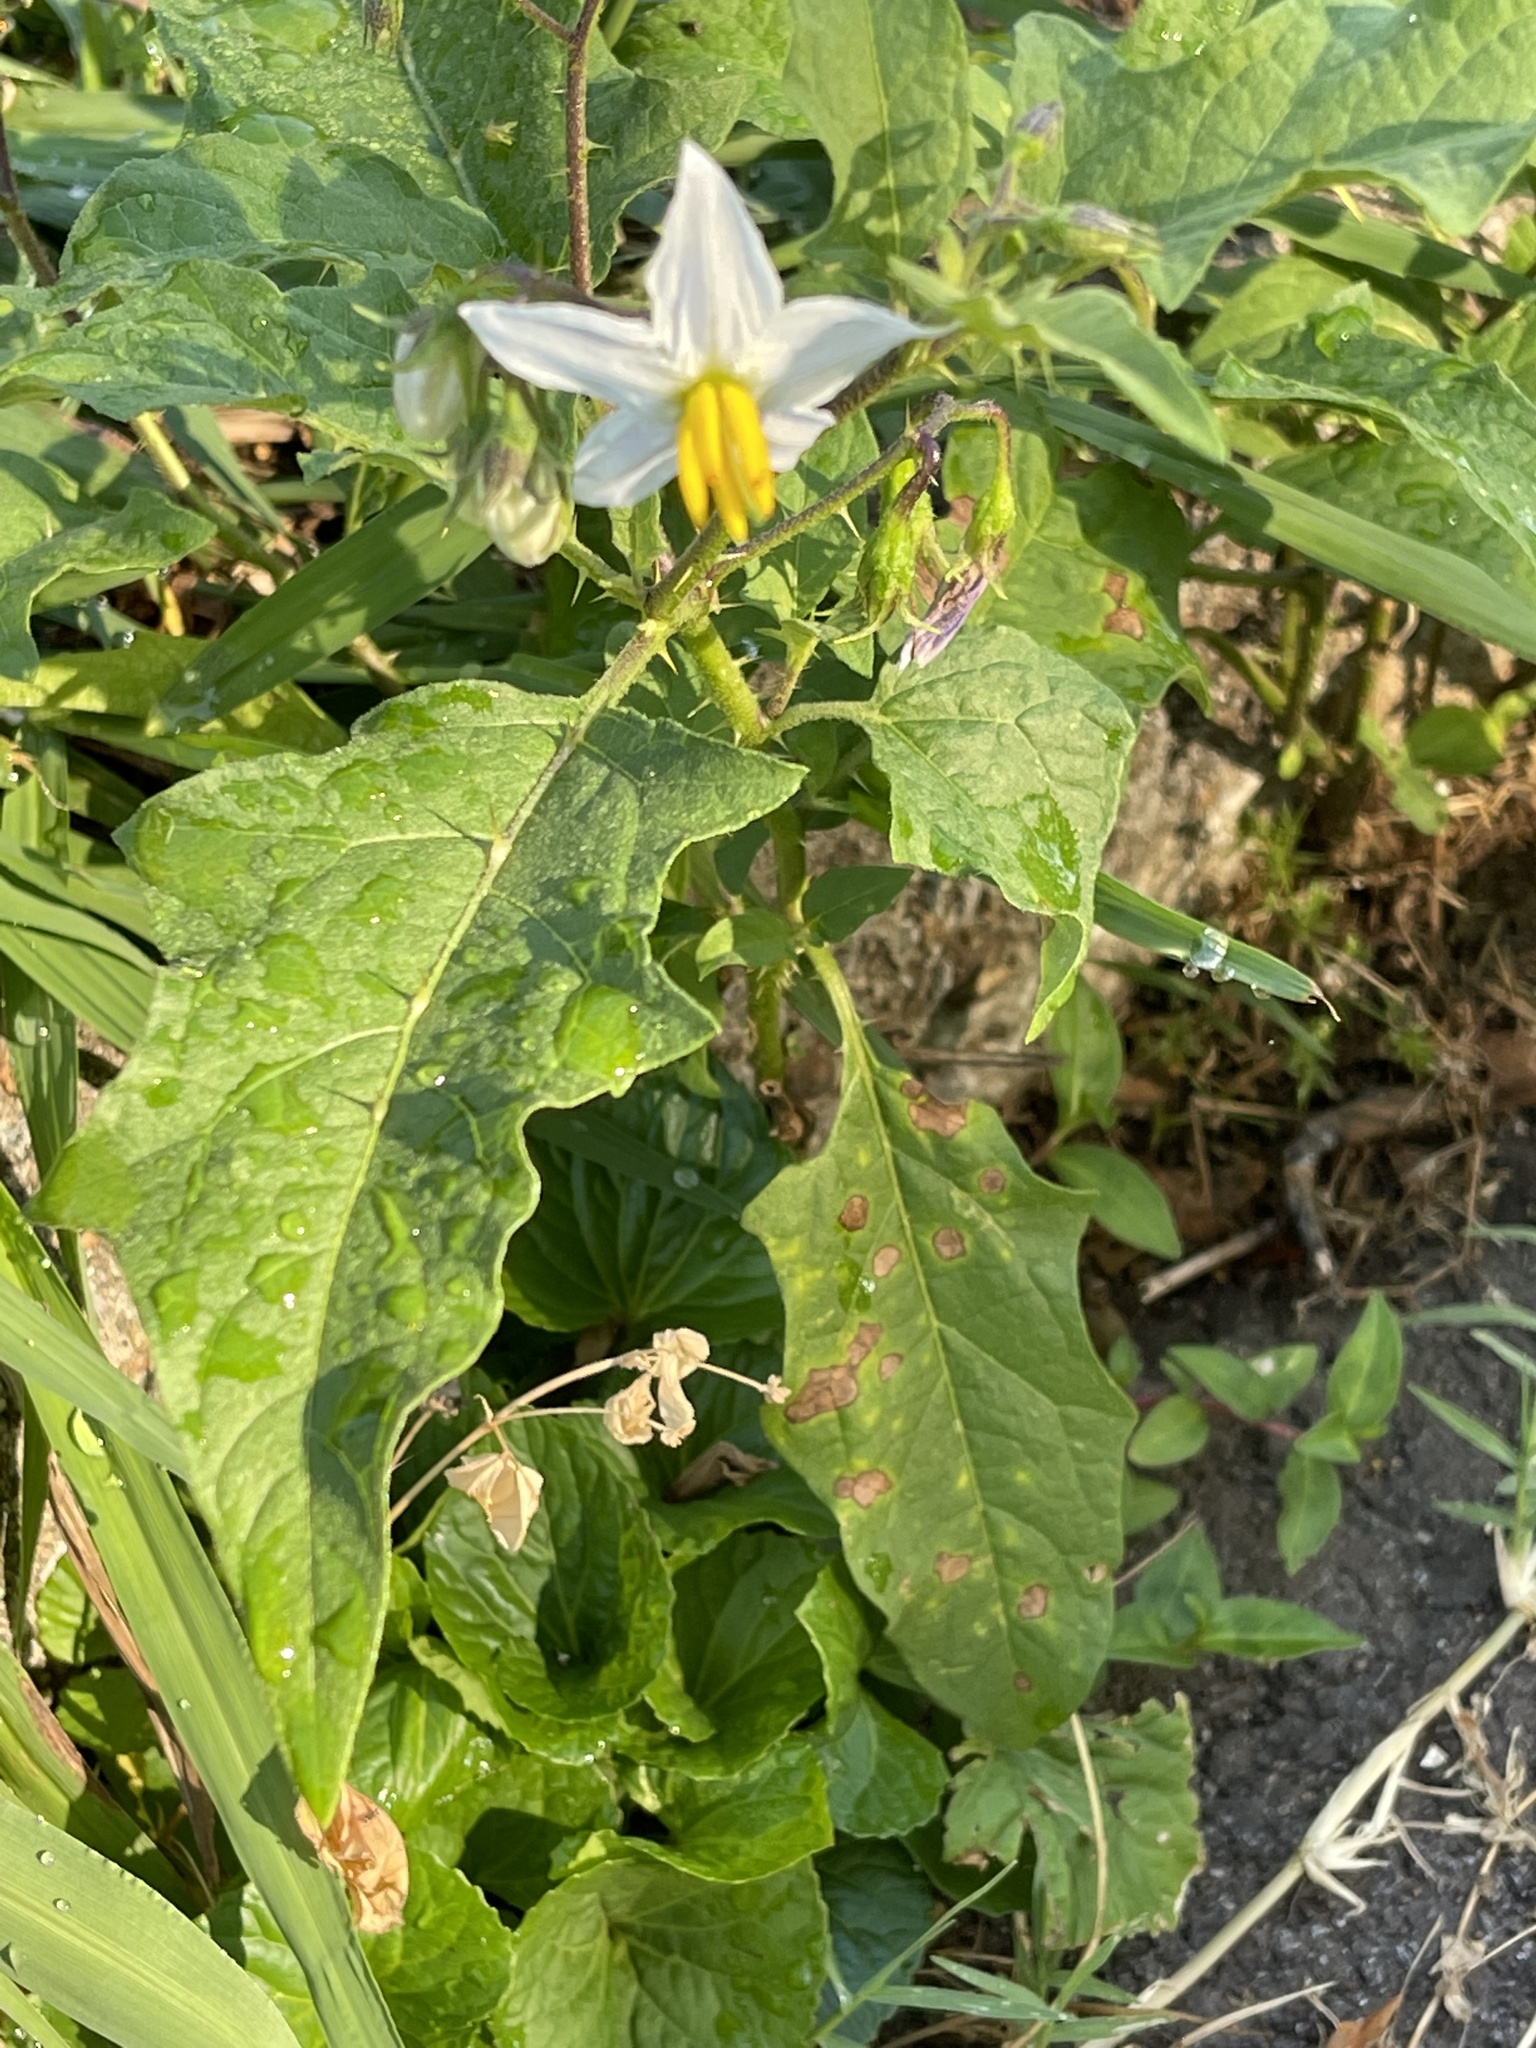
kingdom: Plantae
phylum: Tracheophyta
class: Magnoliopsida
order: Solanales
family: Solanaceae
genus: Solanum
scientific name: Solanum carolinense
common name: Horse-nettle
